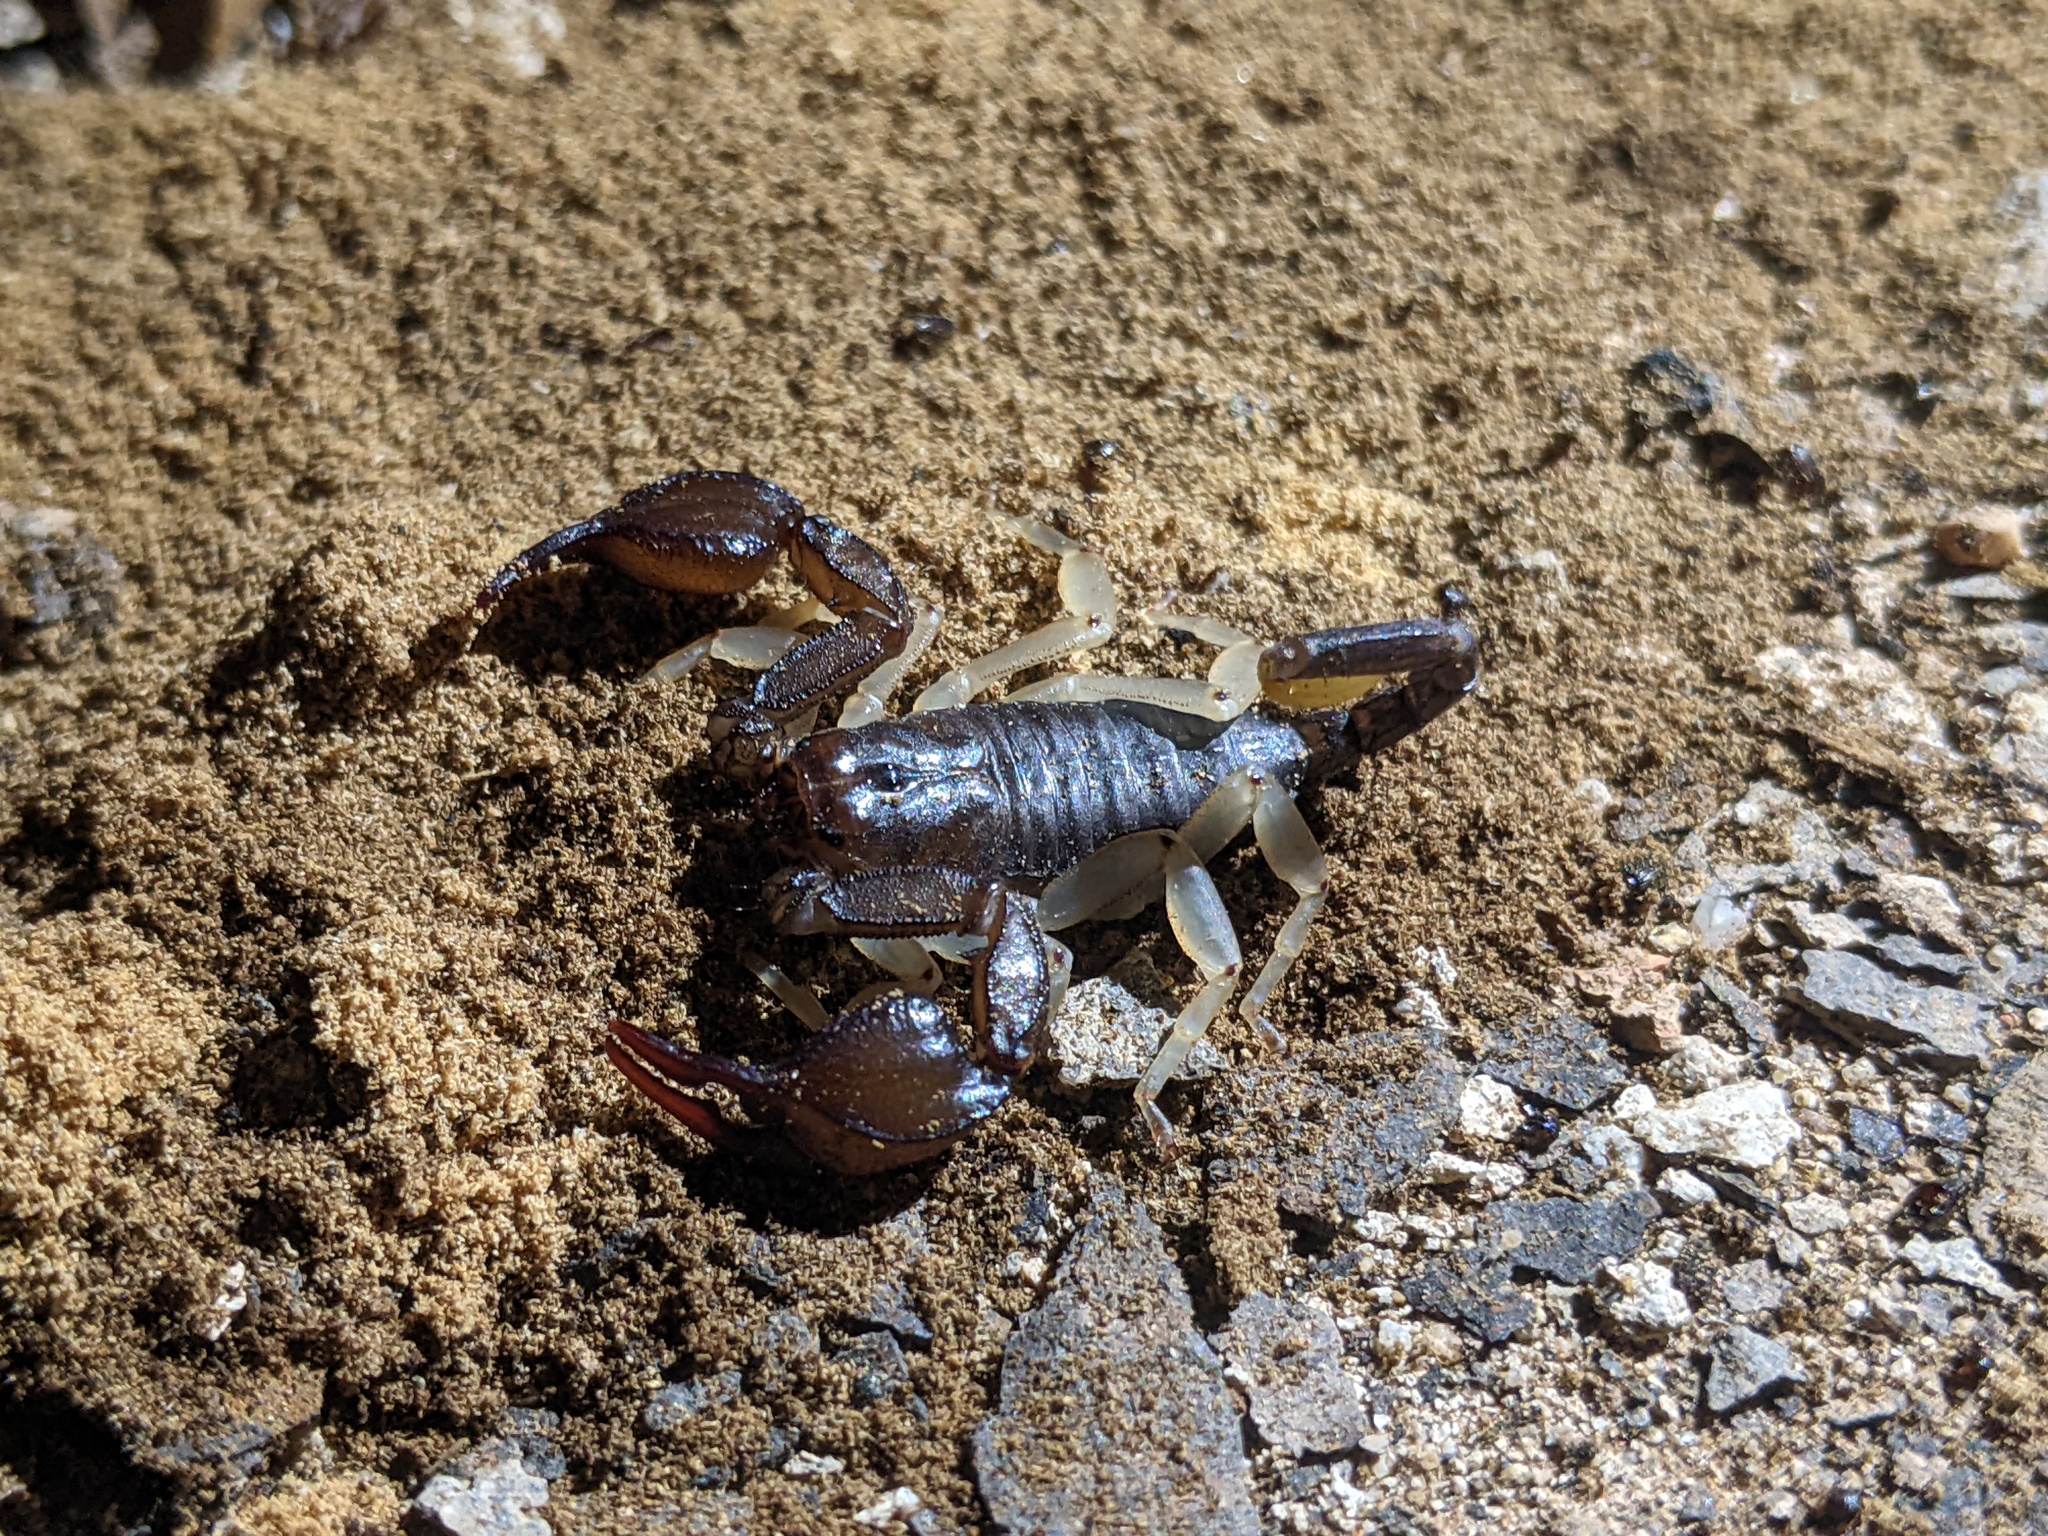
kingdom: Animalia
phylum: Arthropoda
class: Arachnida
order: Scorpiones
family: Euscorpiidae
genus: Euscorpius
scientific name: Euscorpius
